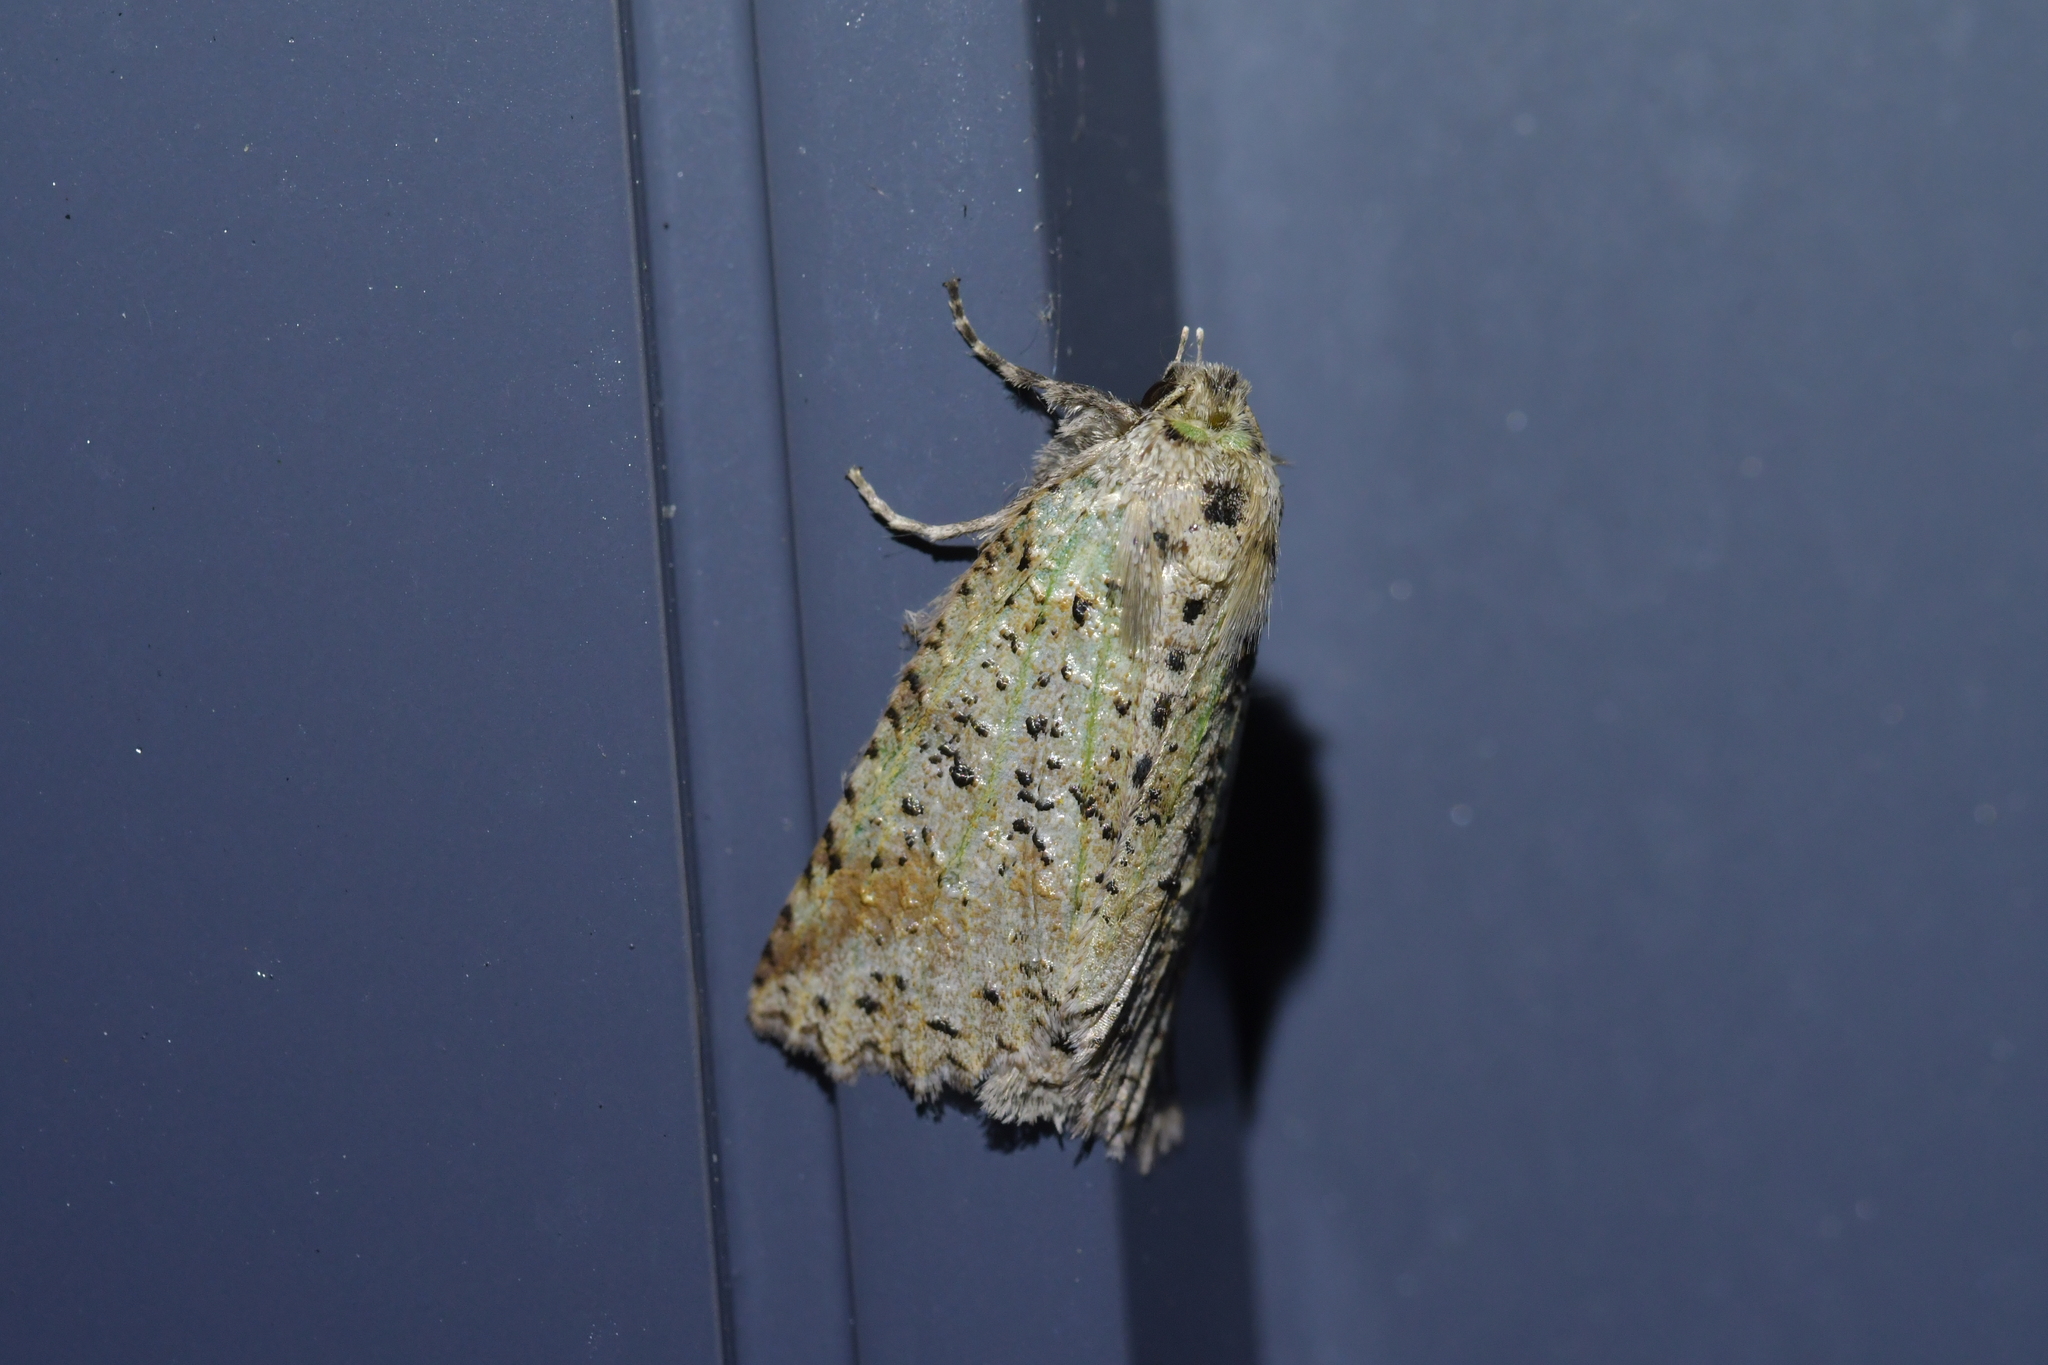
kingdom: Animalia
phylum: Arthropoda
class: Insecta
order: Lepidoptera
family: Geometridae
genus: Declana
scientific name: Declana floccosa
